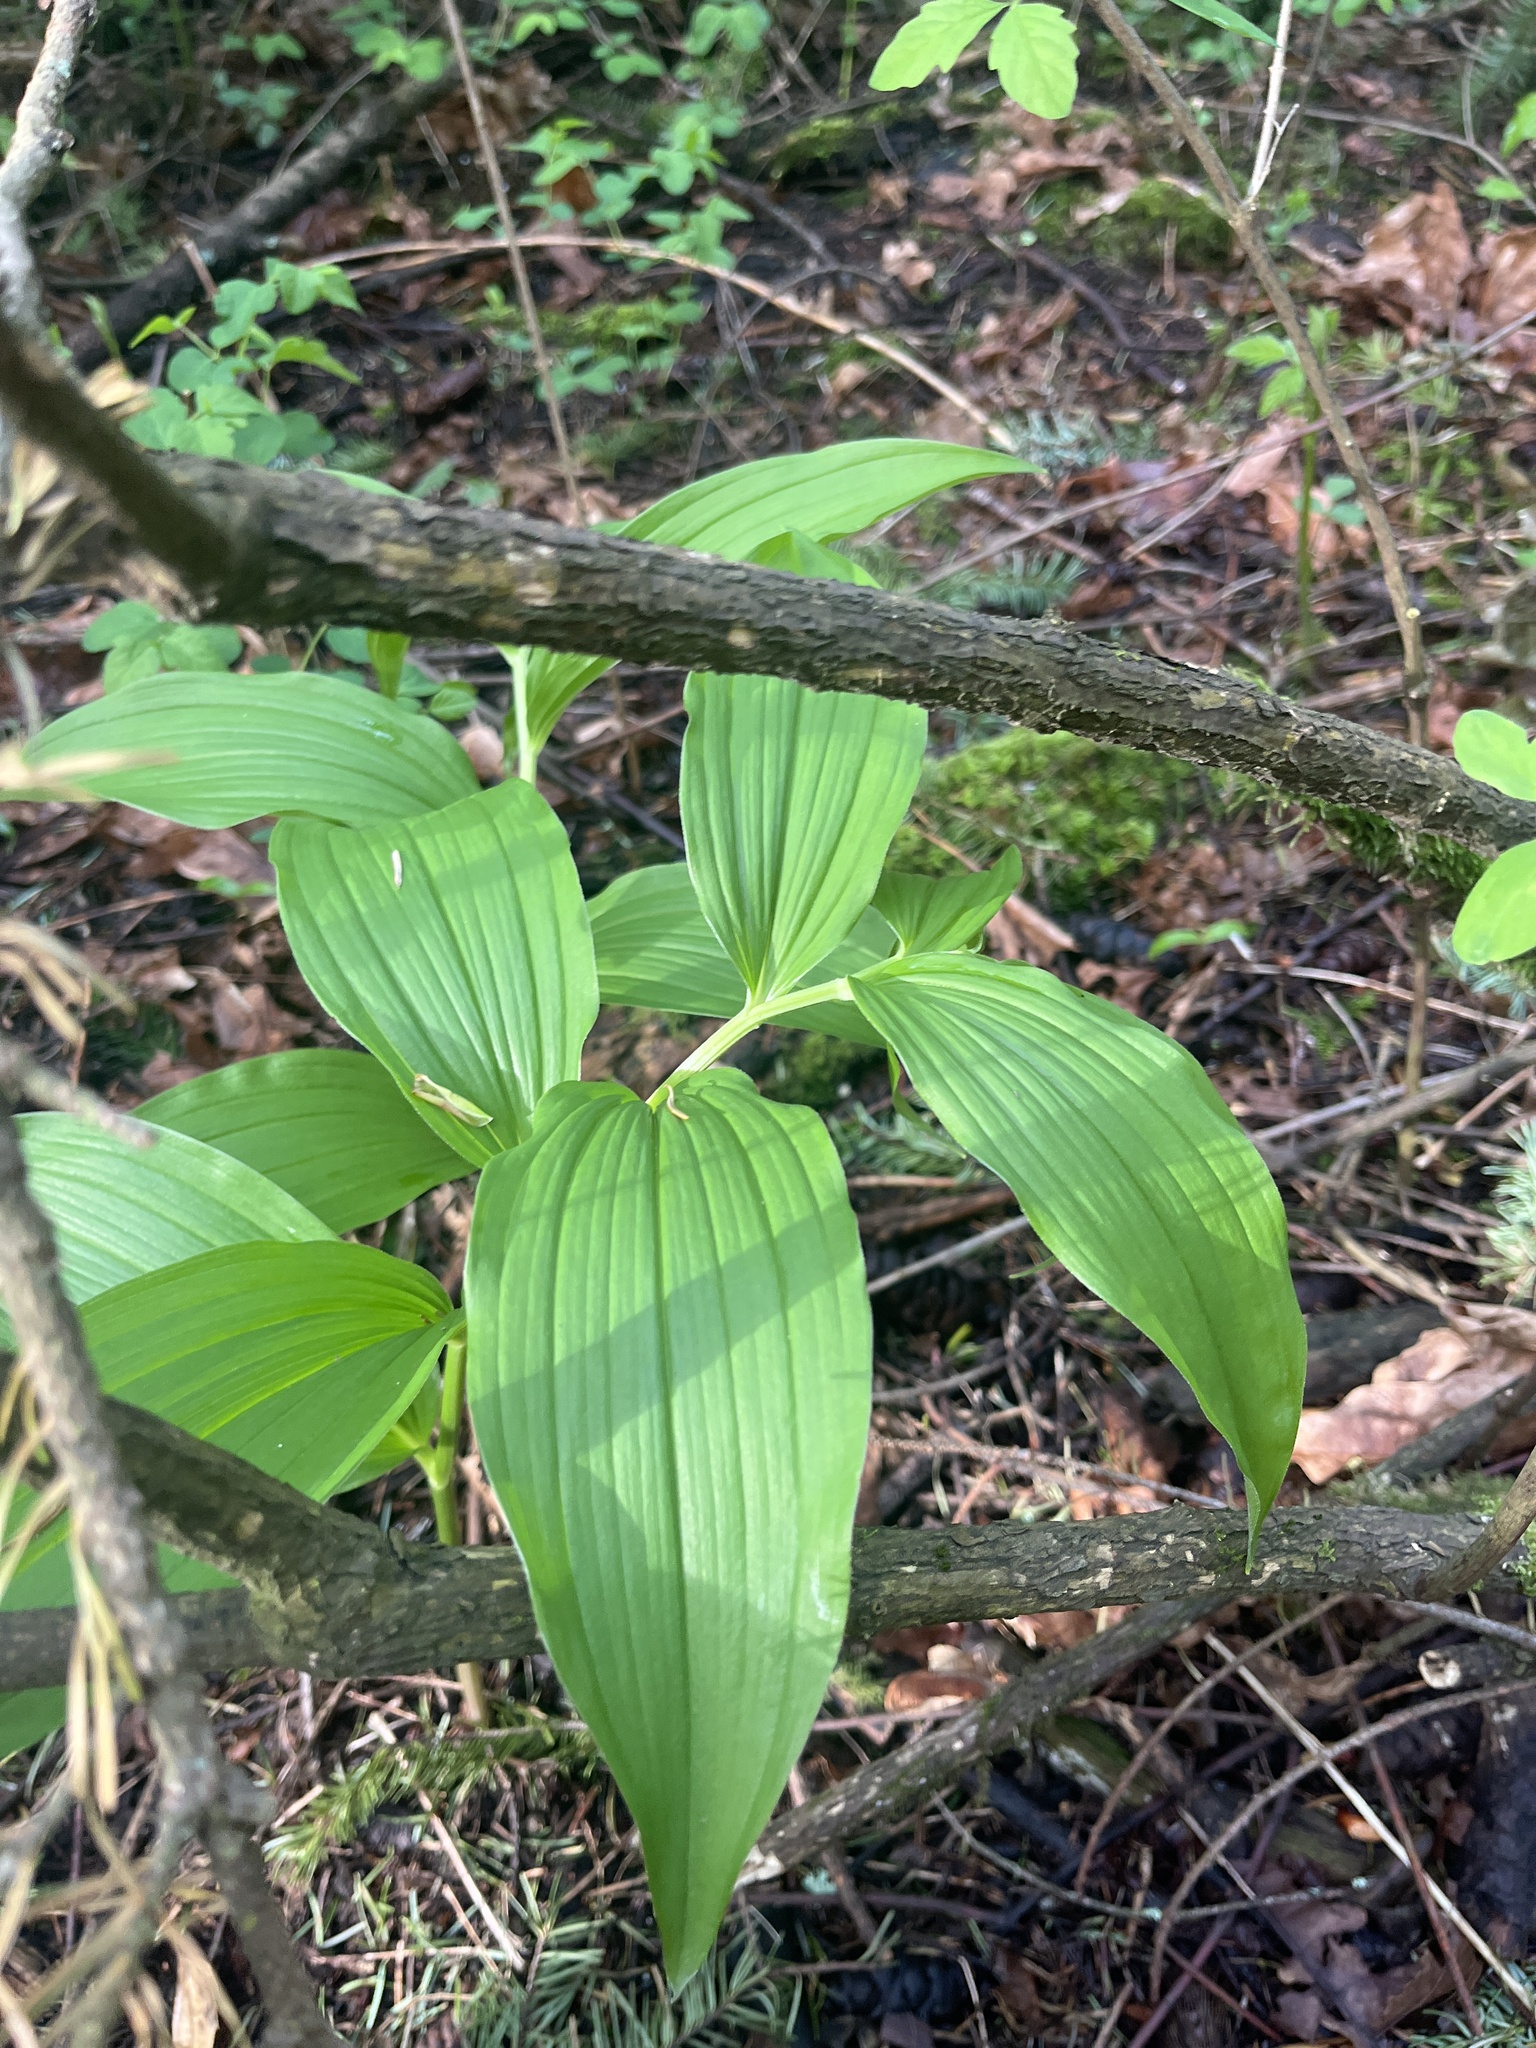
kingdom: Plantae
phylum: Tracheophyta
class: Liliopsida
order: Asparagales
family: Asparagaceae
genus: Maianthemum
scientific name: Maianthemum racemosum
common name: False spikenard
